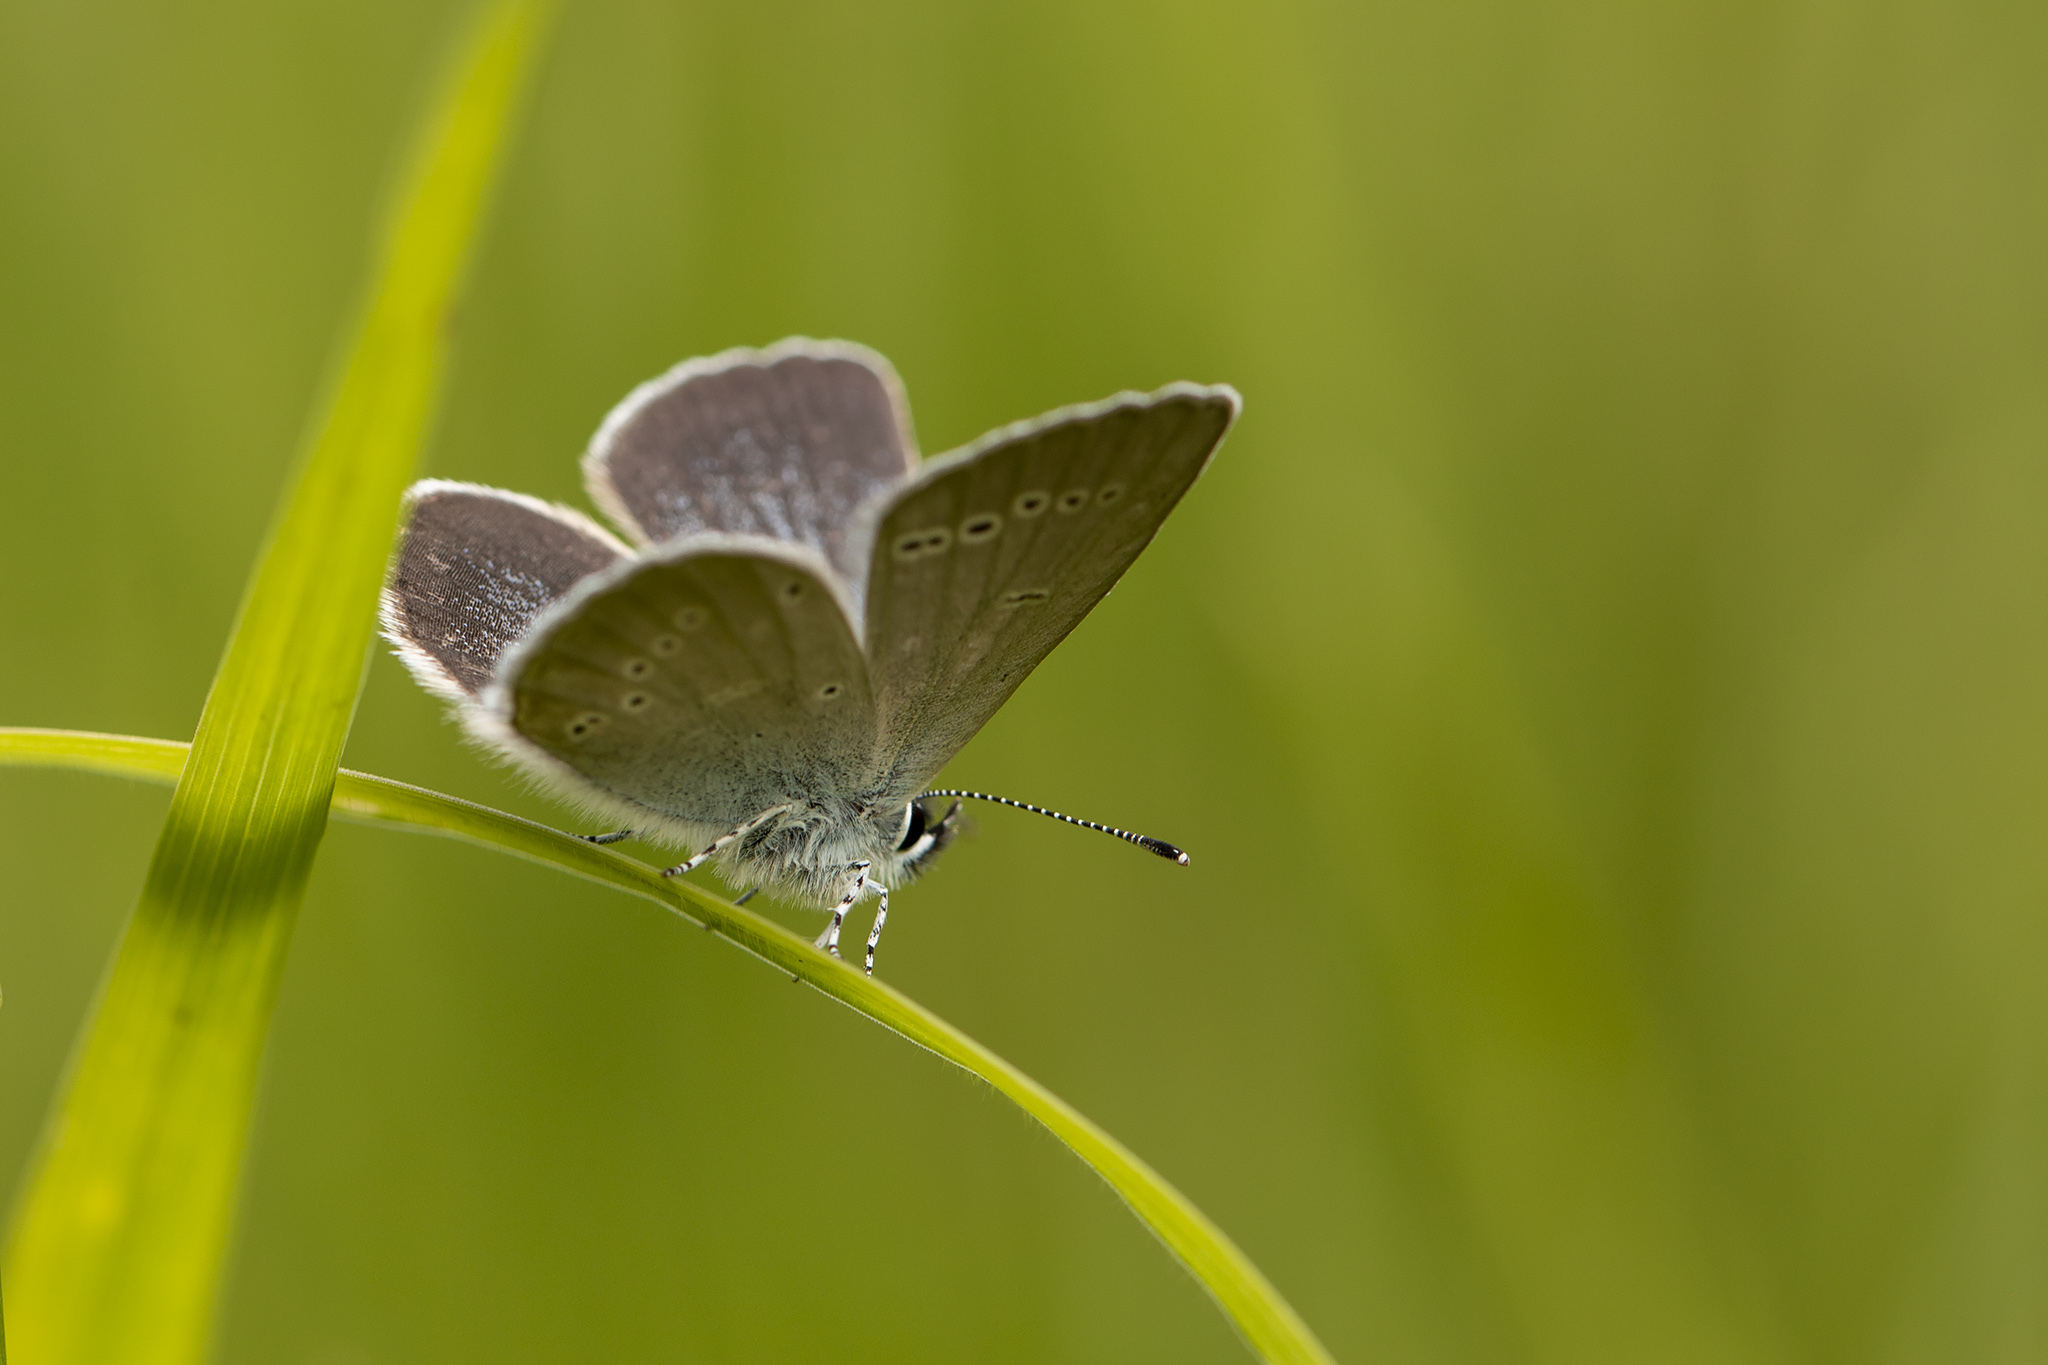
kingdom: Animalia
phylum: Arthropoda
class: Insecta
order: Lepidoptera
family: Lycaenidae
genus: Cupido
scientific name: Cupido minimus
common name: Small blue
